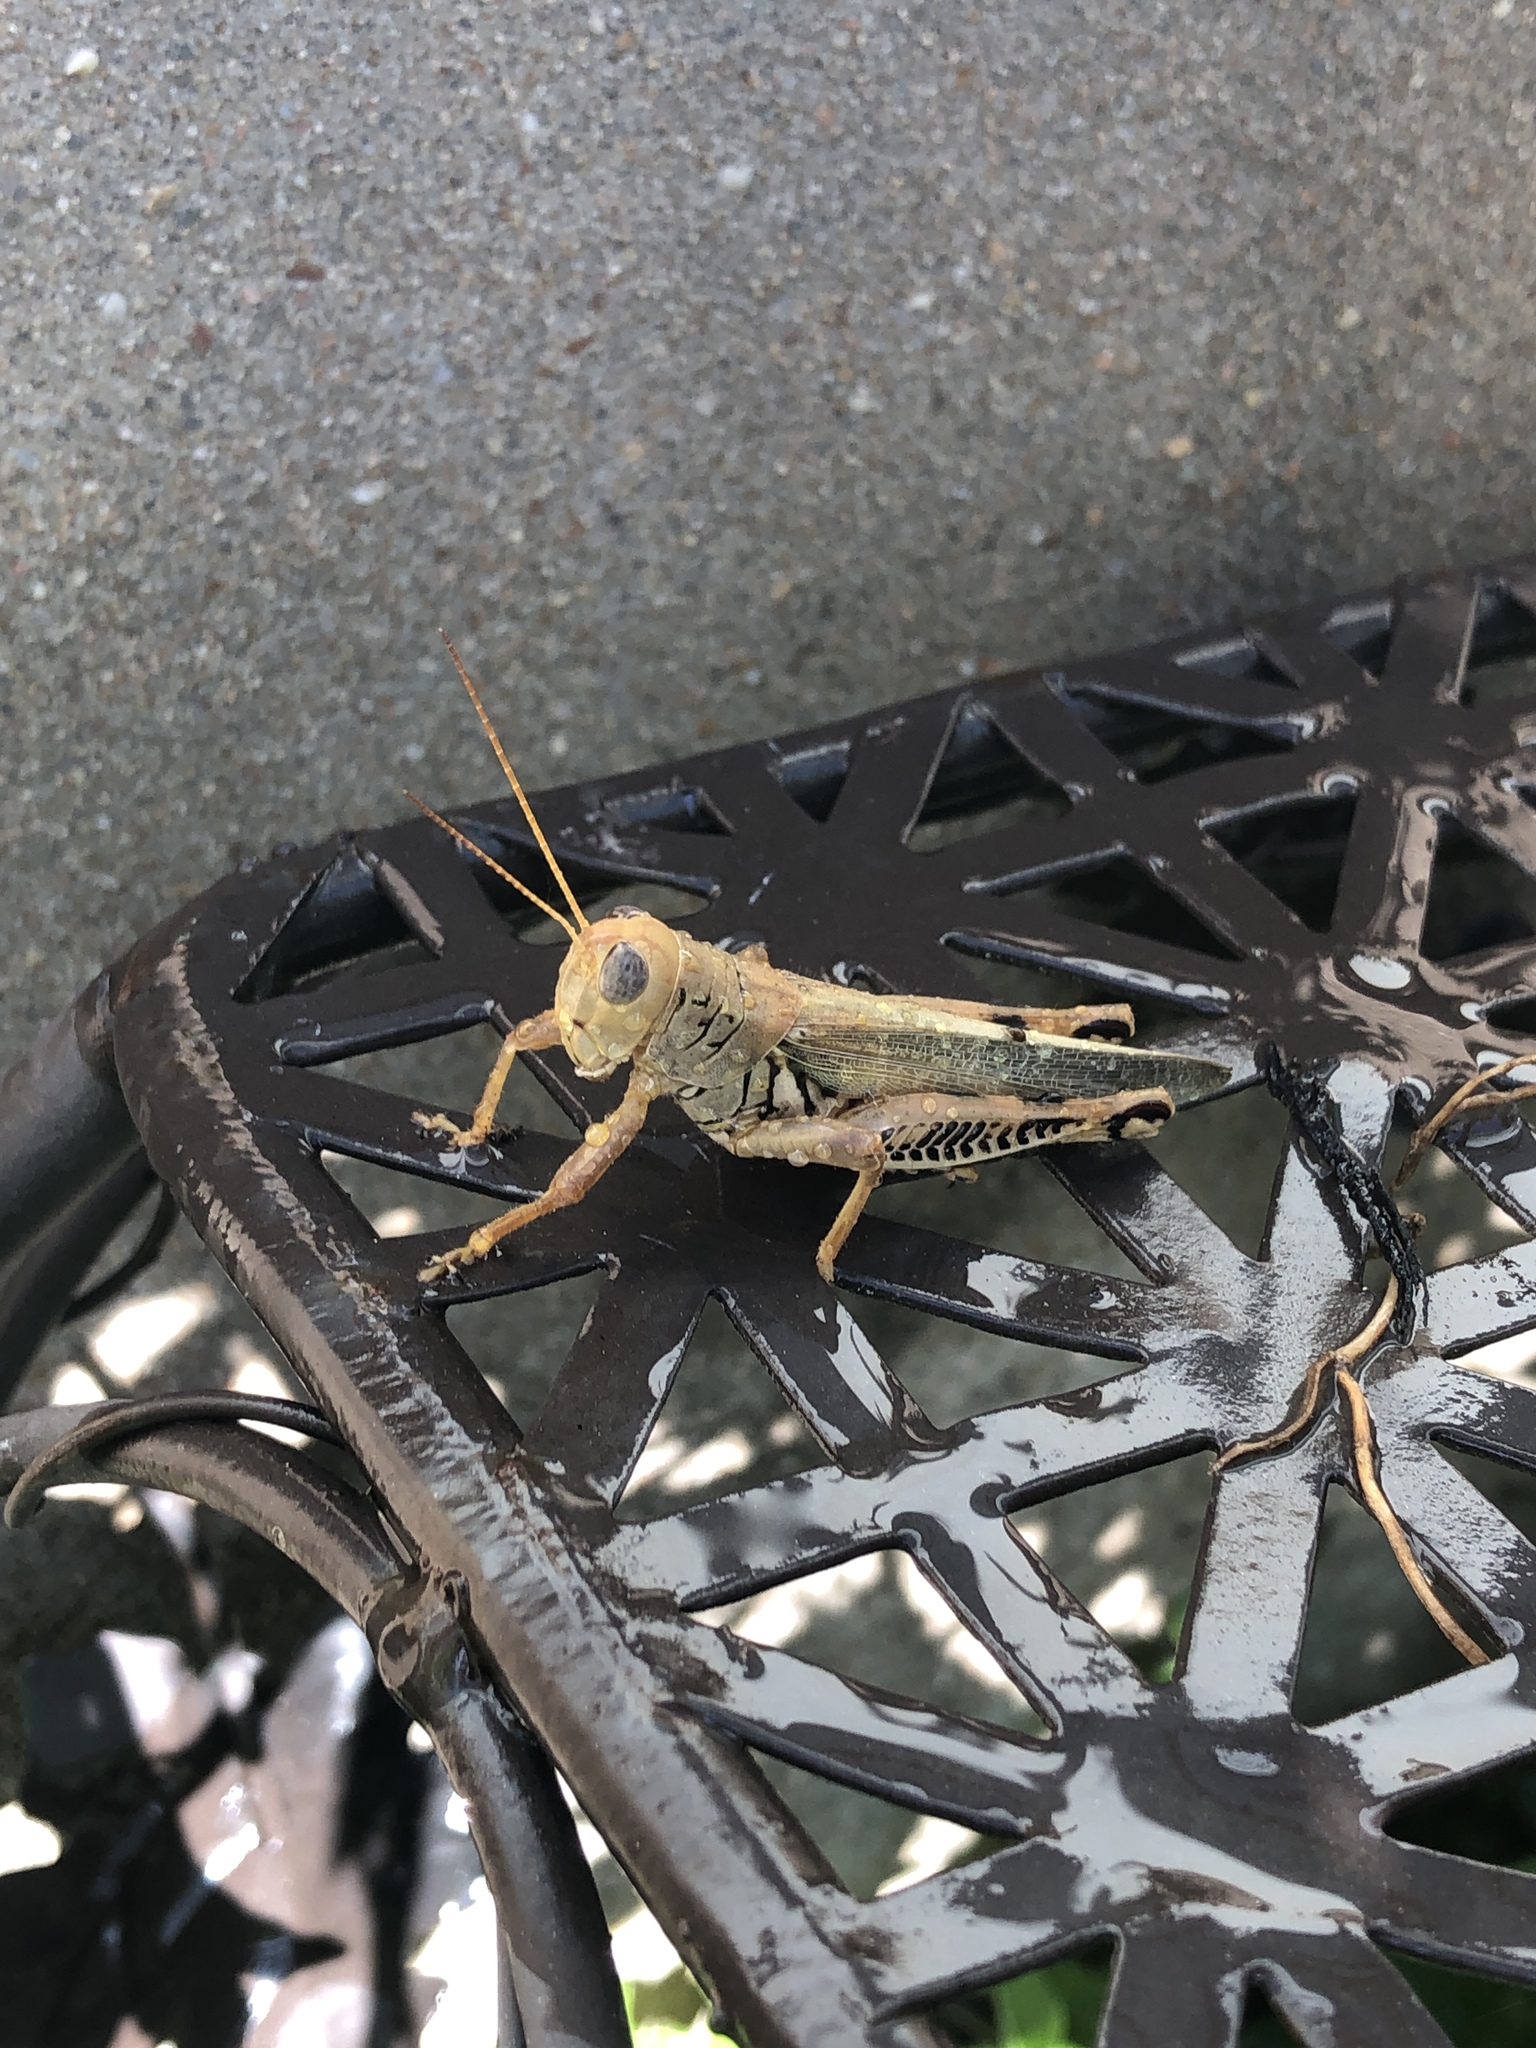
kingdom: Animalia
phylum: Arthropoda
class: Insecta
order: Orthoptera
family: Acrididae
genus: Melanoplus
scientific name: Melanoplus differentialis
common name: Differential grasshopper
